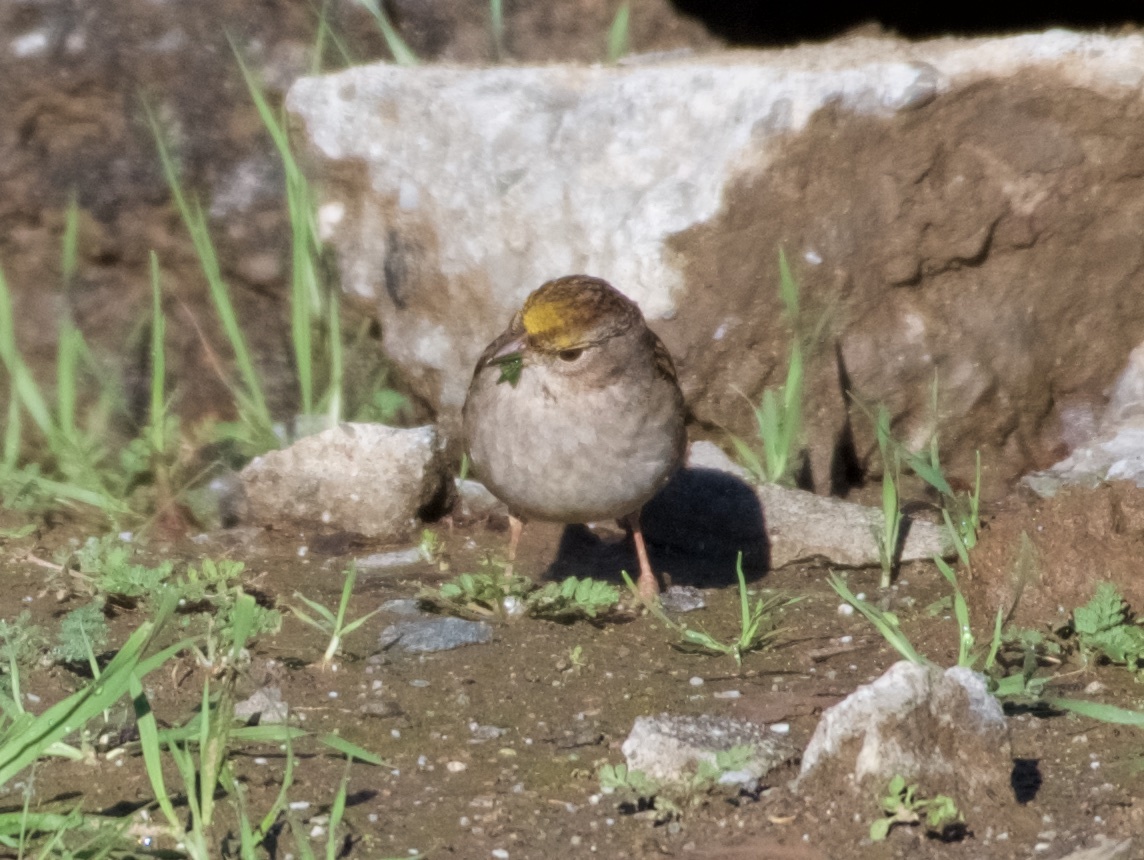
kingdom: Animalia
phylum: Chordata
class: Aves
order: Passeriformes
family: Passerellidae
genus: Zonotrichia
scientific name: Zonotrichia atricapilla
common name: Golden-crowned sparrow
